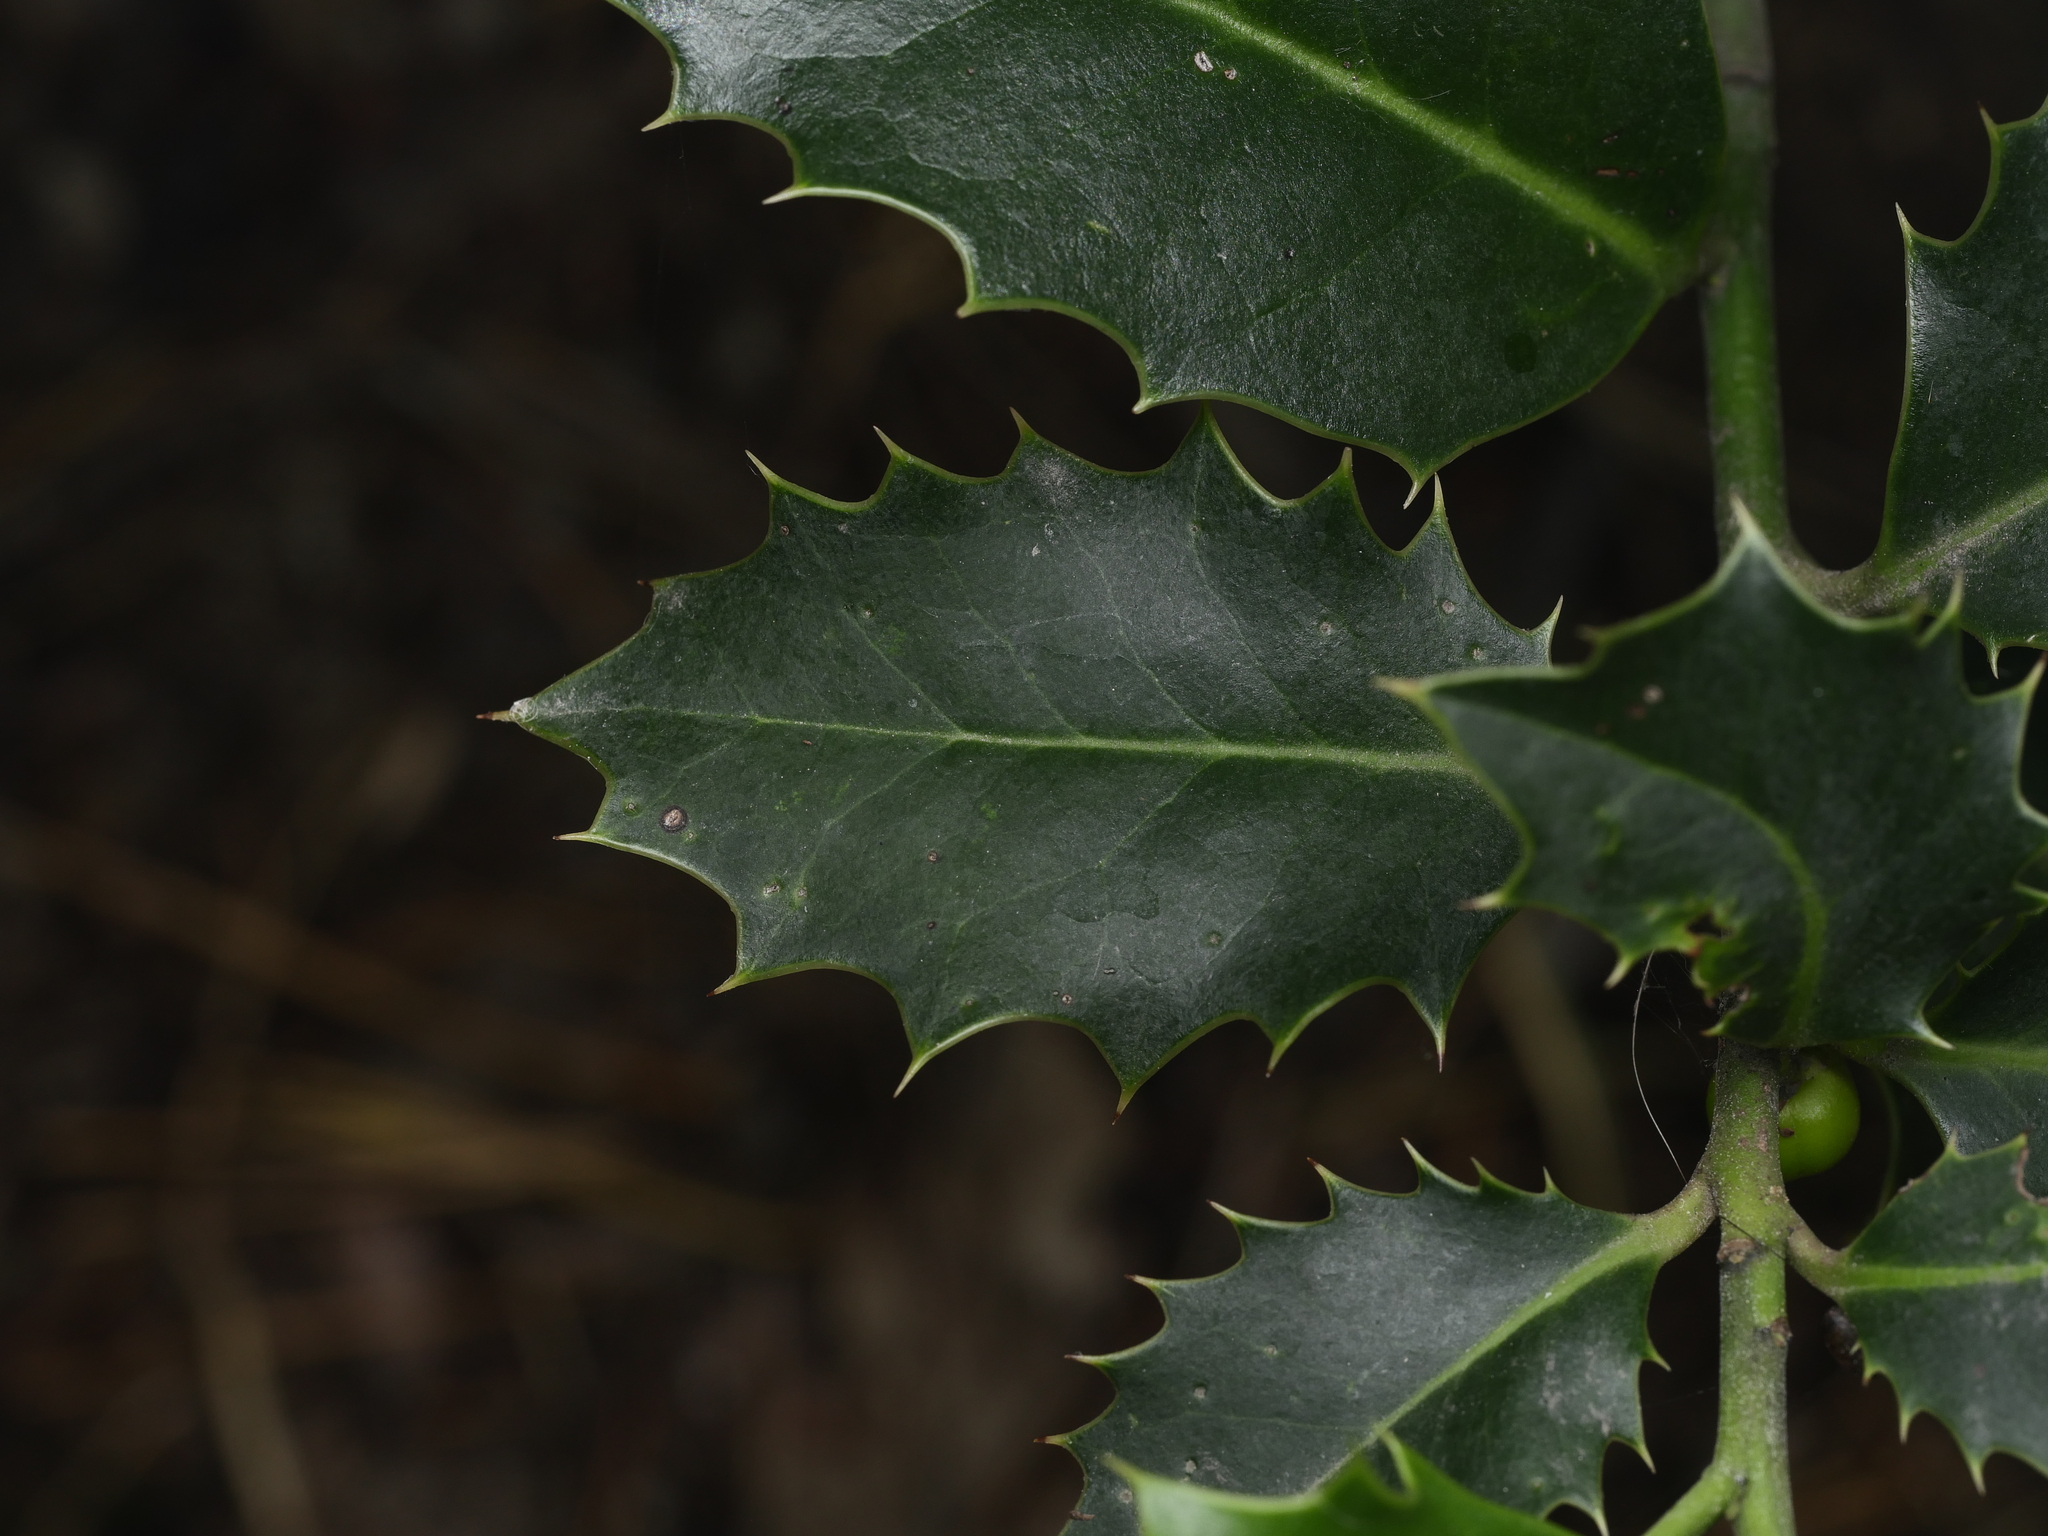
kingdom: Plantae
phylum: Tracheophyta
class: Magnoliopsida
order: Aquifoliales
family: Aquifoliaceae
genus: Ilex
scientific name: Ilex aquifolium
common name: English holly
